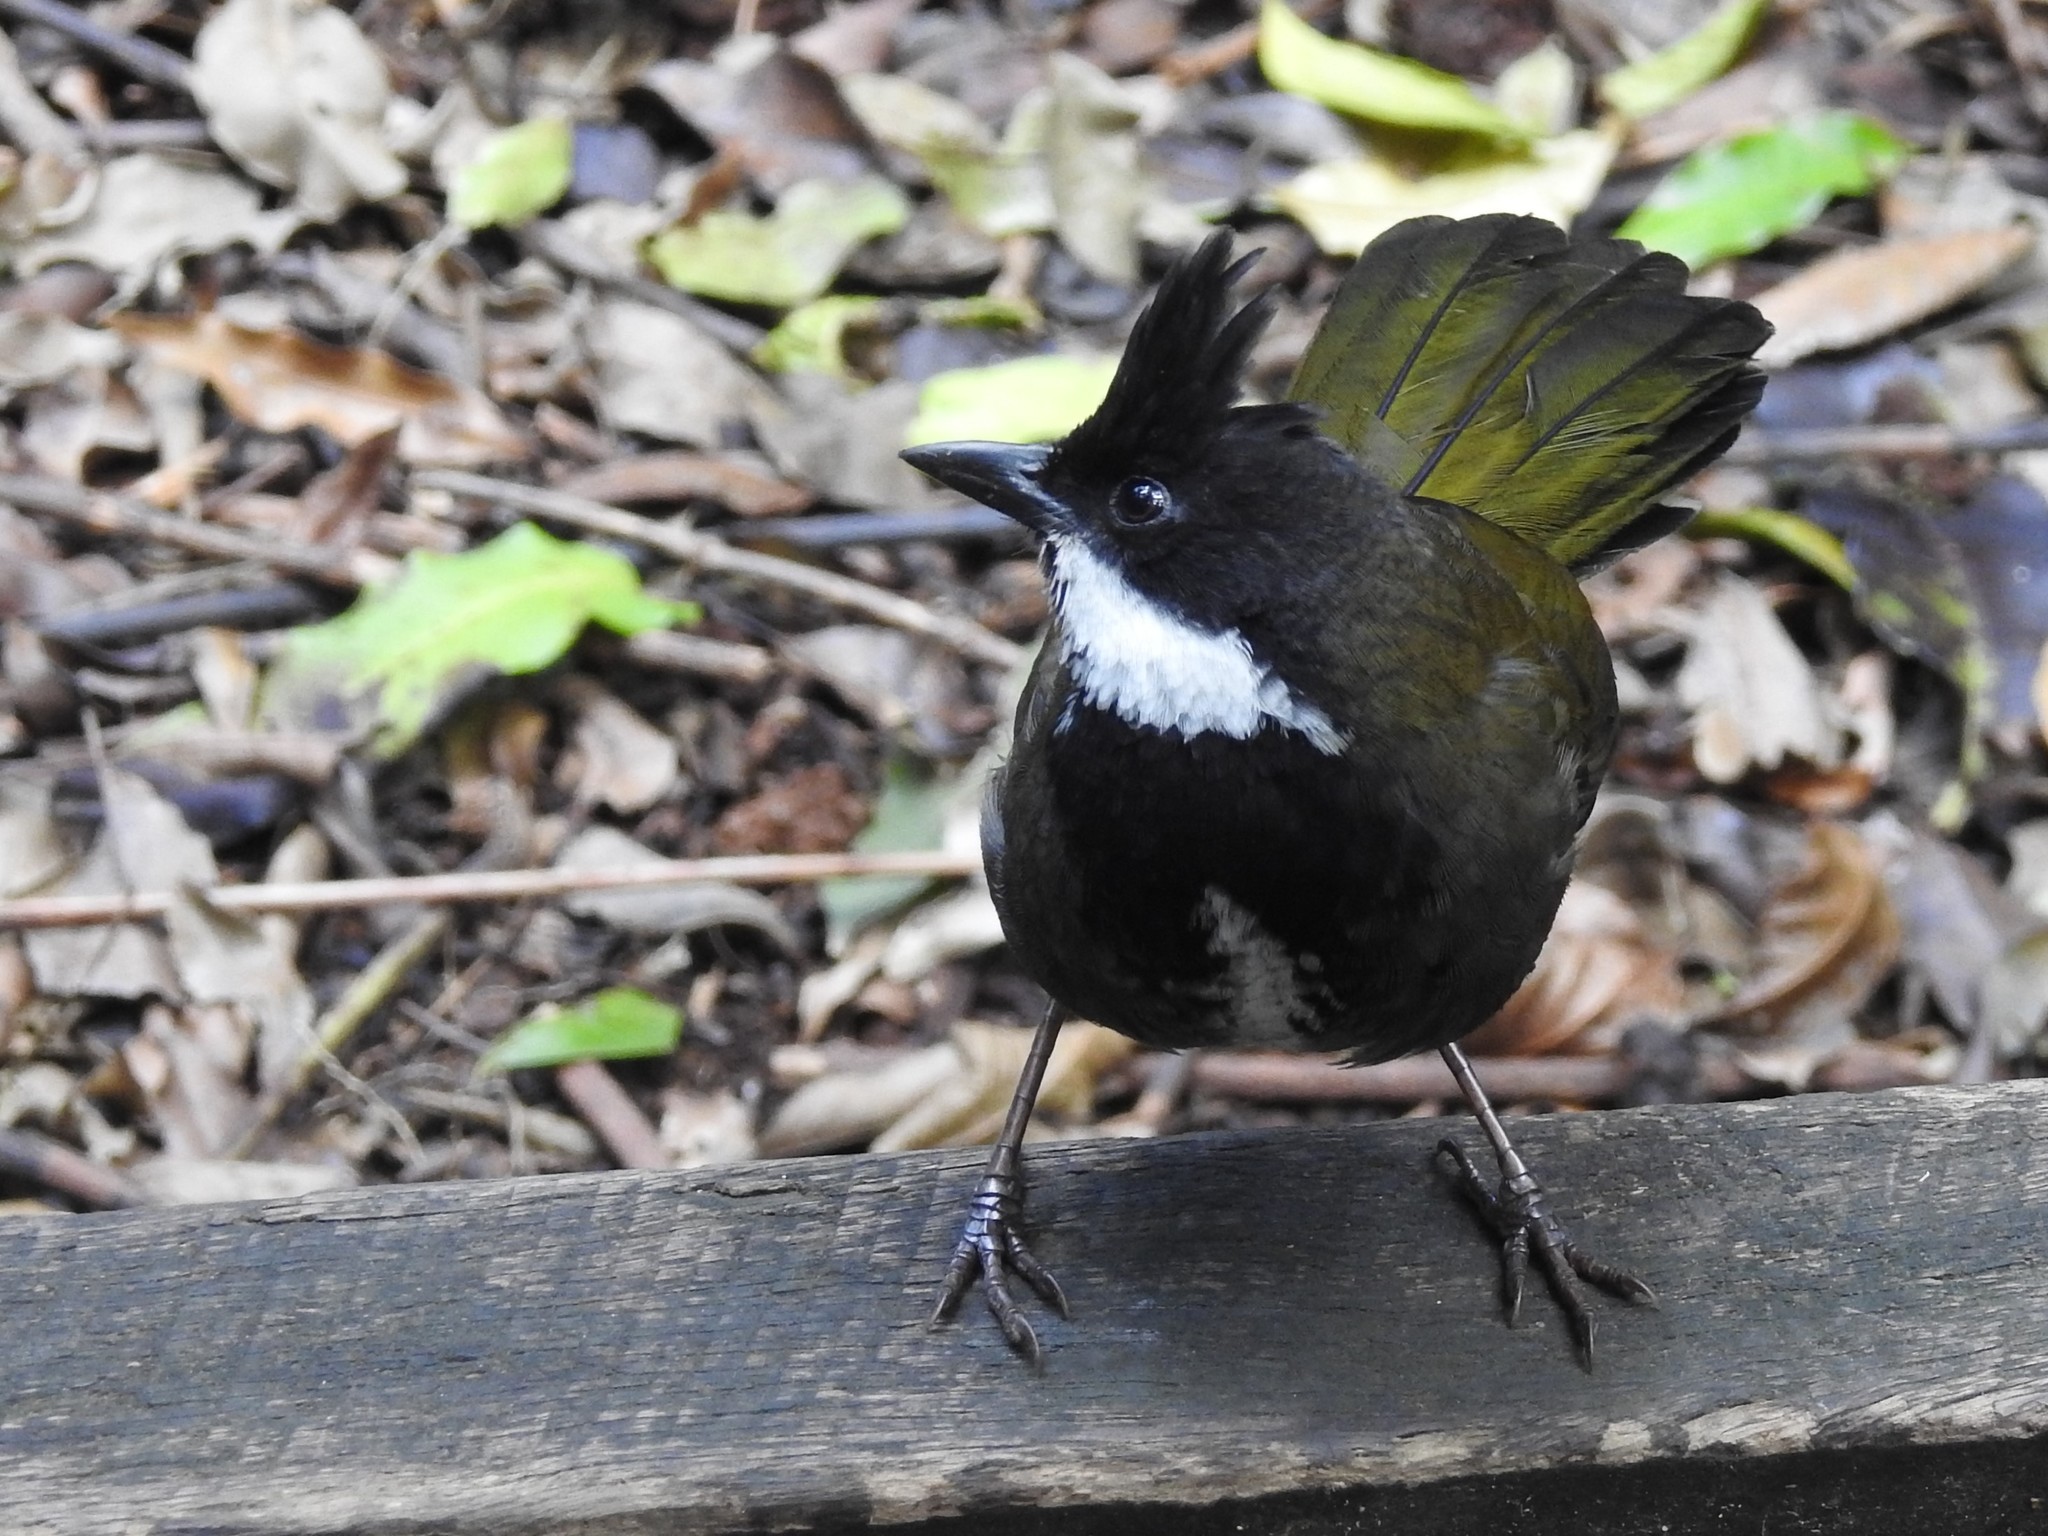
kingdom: Animalia
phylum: Chordata
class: Aves
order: Passeriformes
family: Psophodidae
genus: Psophodes
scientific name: Psophodes olivaceus
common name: Eastern whipbird
